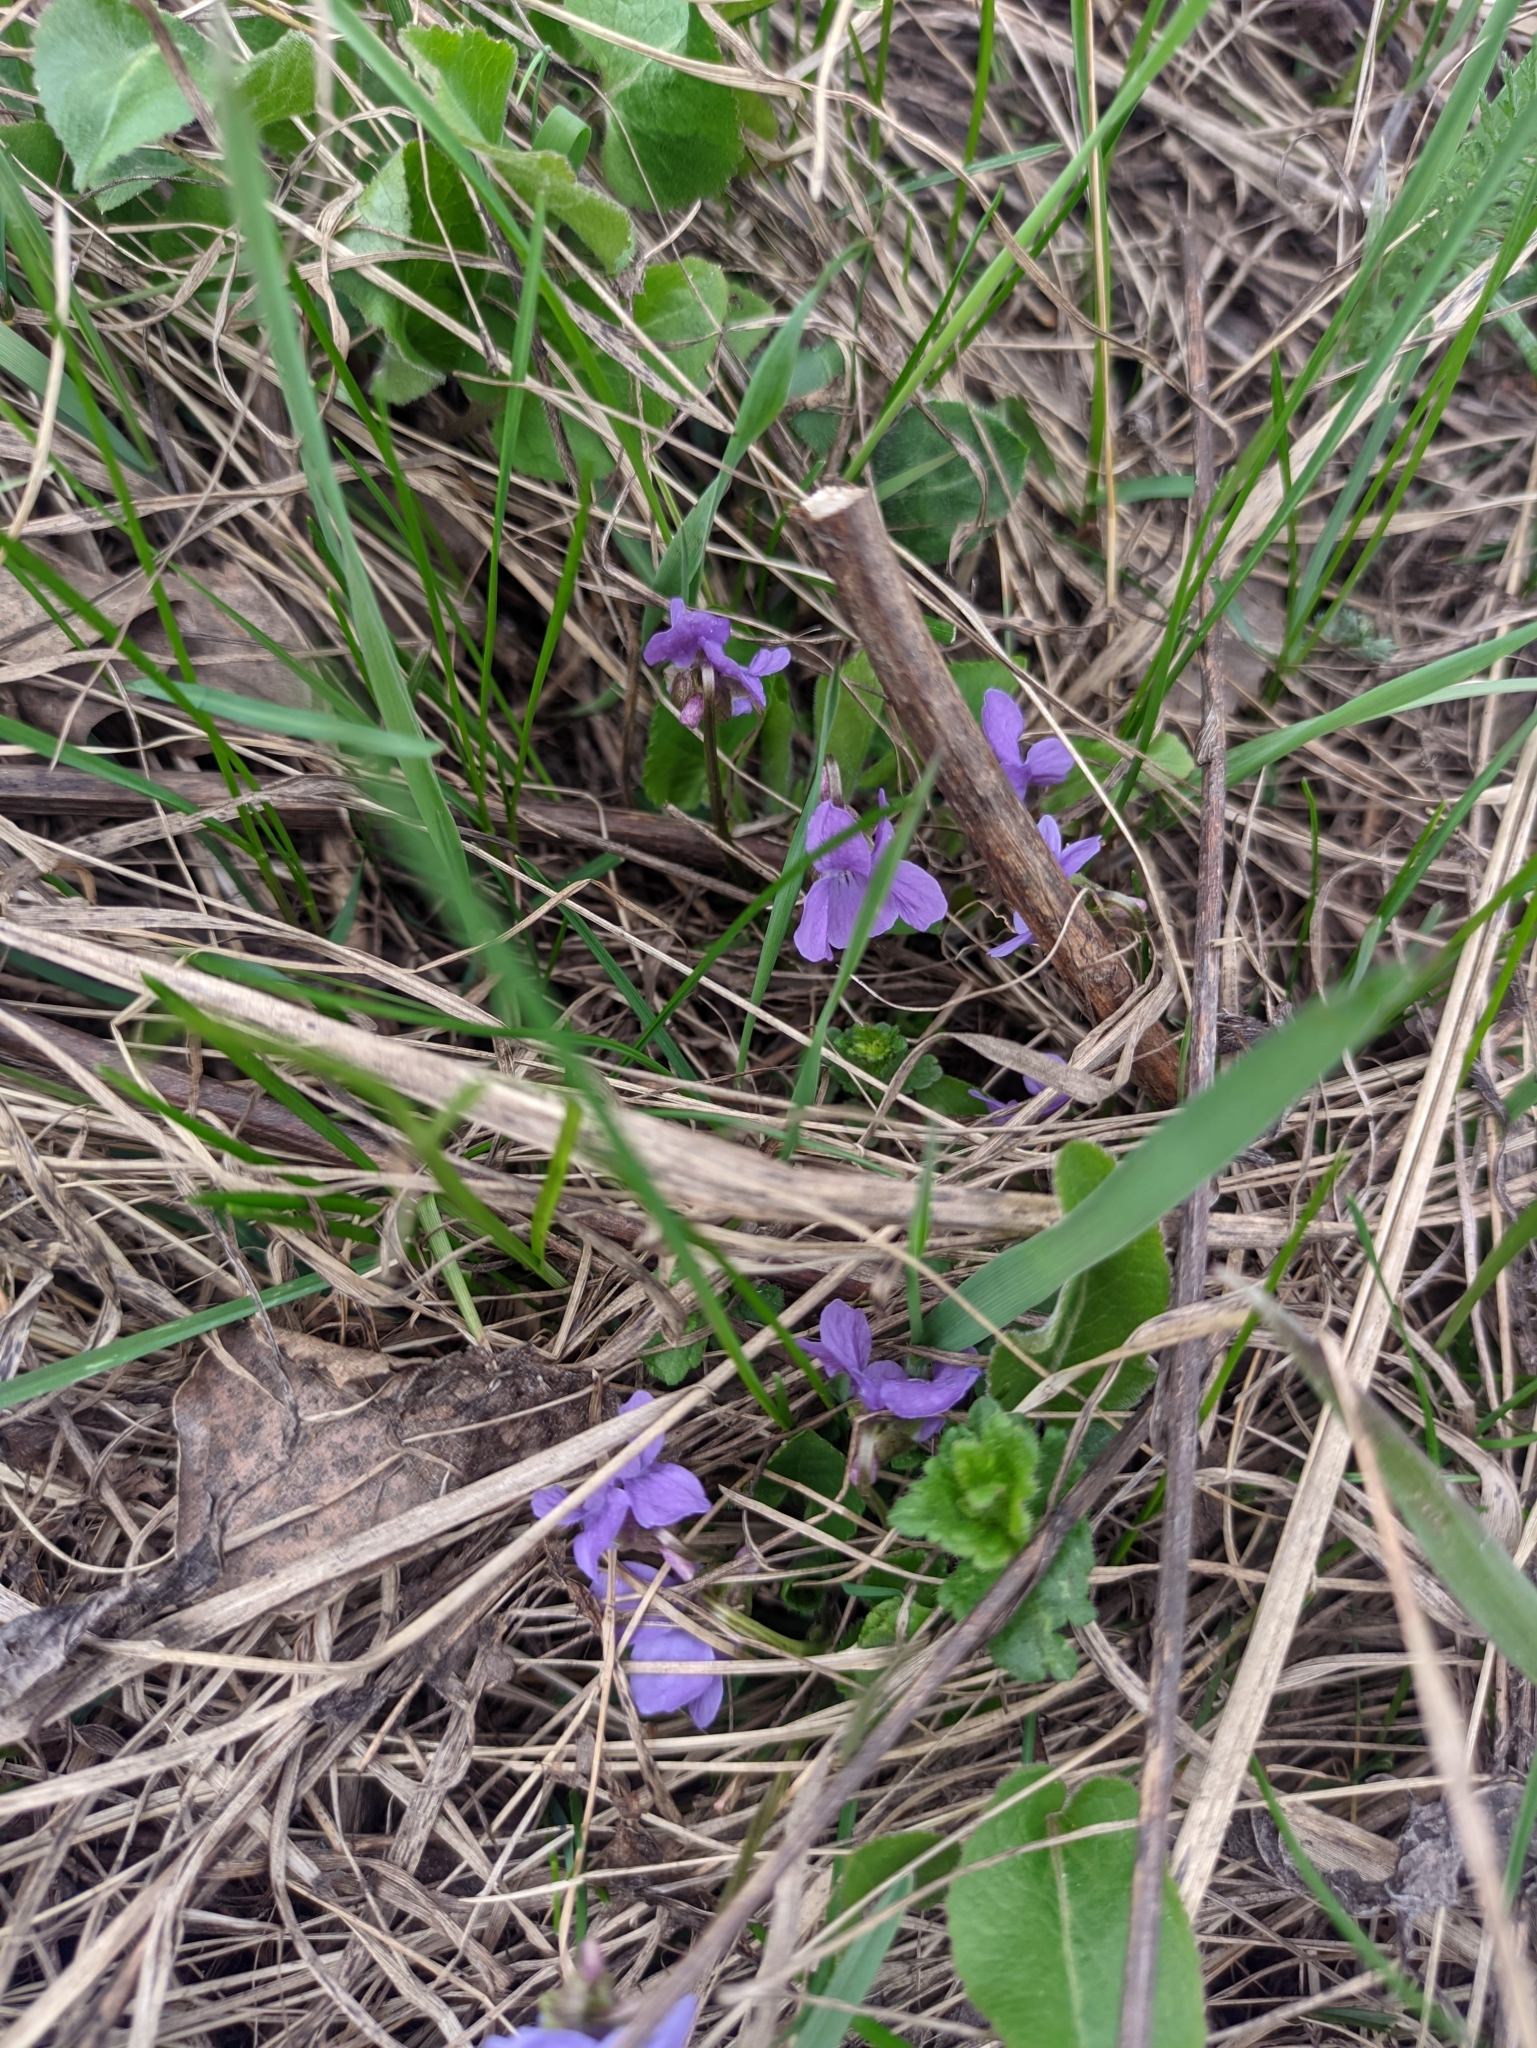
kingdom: Plantae
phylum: Tracheophyta
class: Magnoliopsida
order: Malpighiales
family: Violaceae
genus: Viola
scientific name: Viola hirta
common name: Hairy violet
